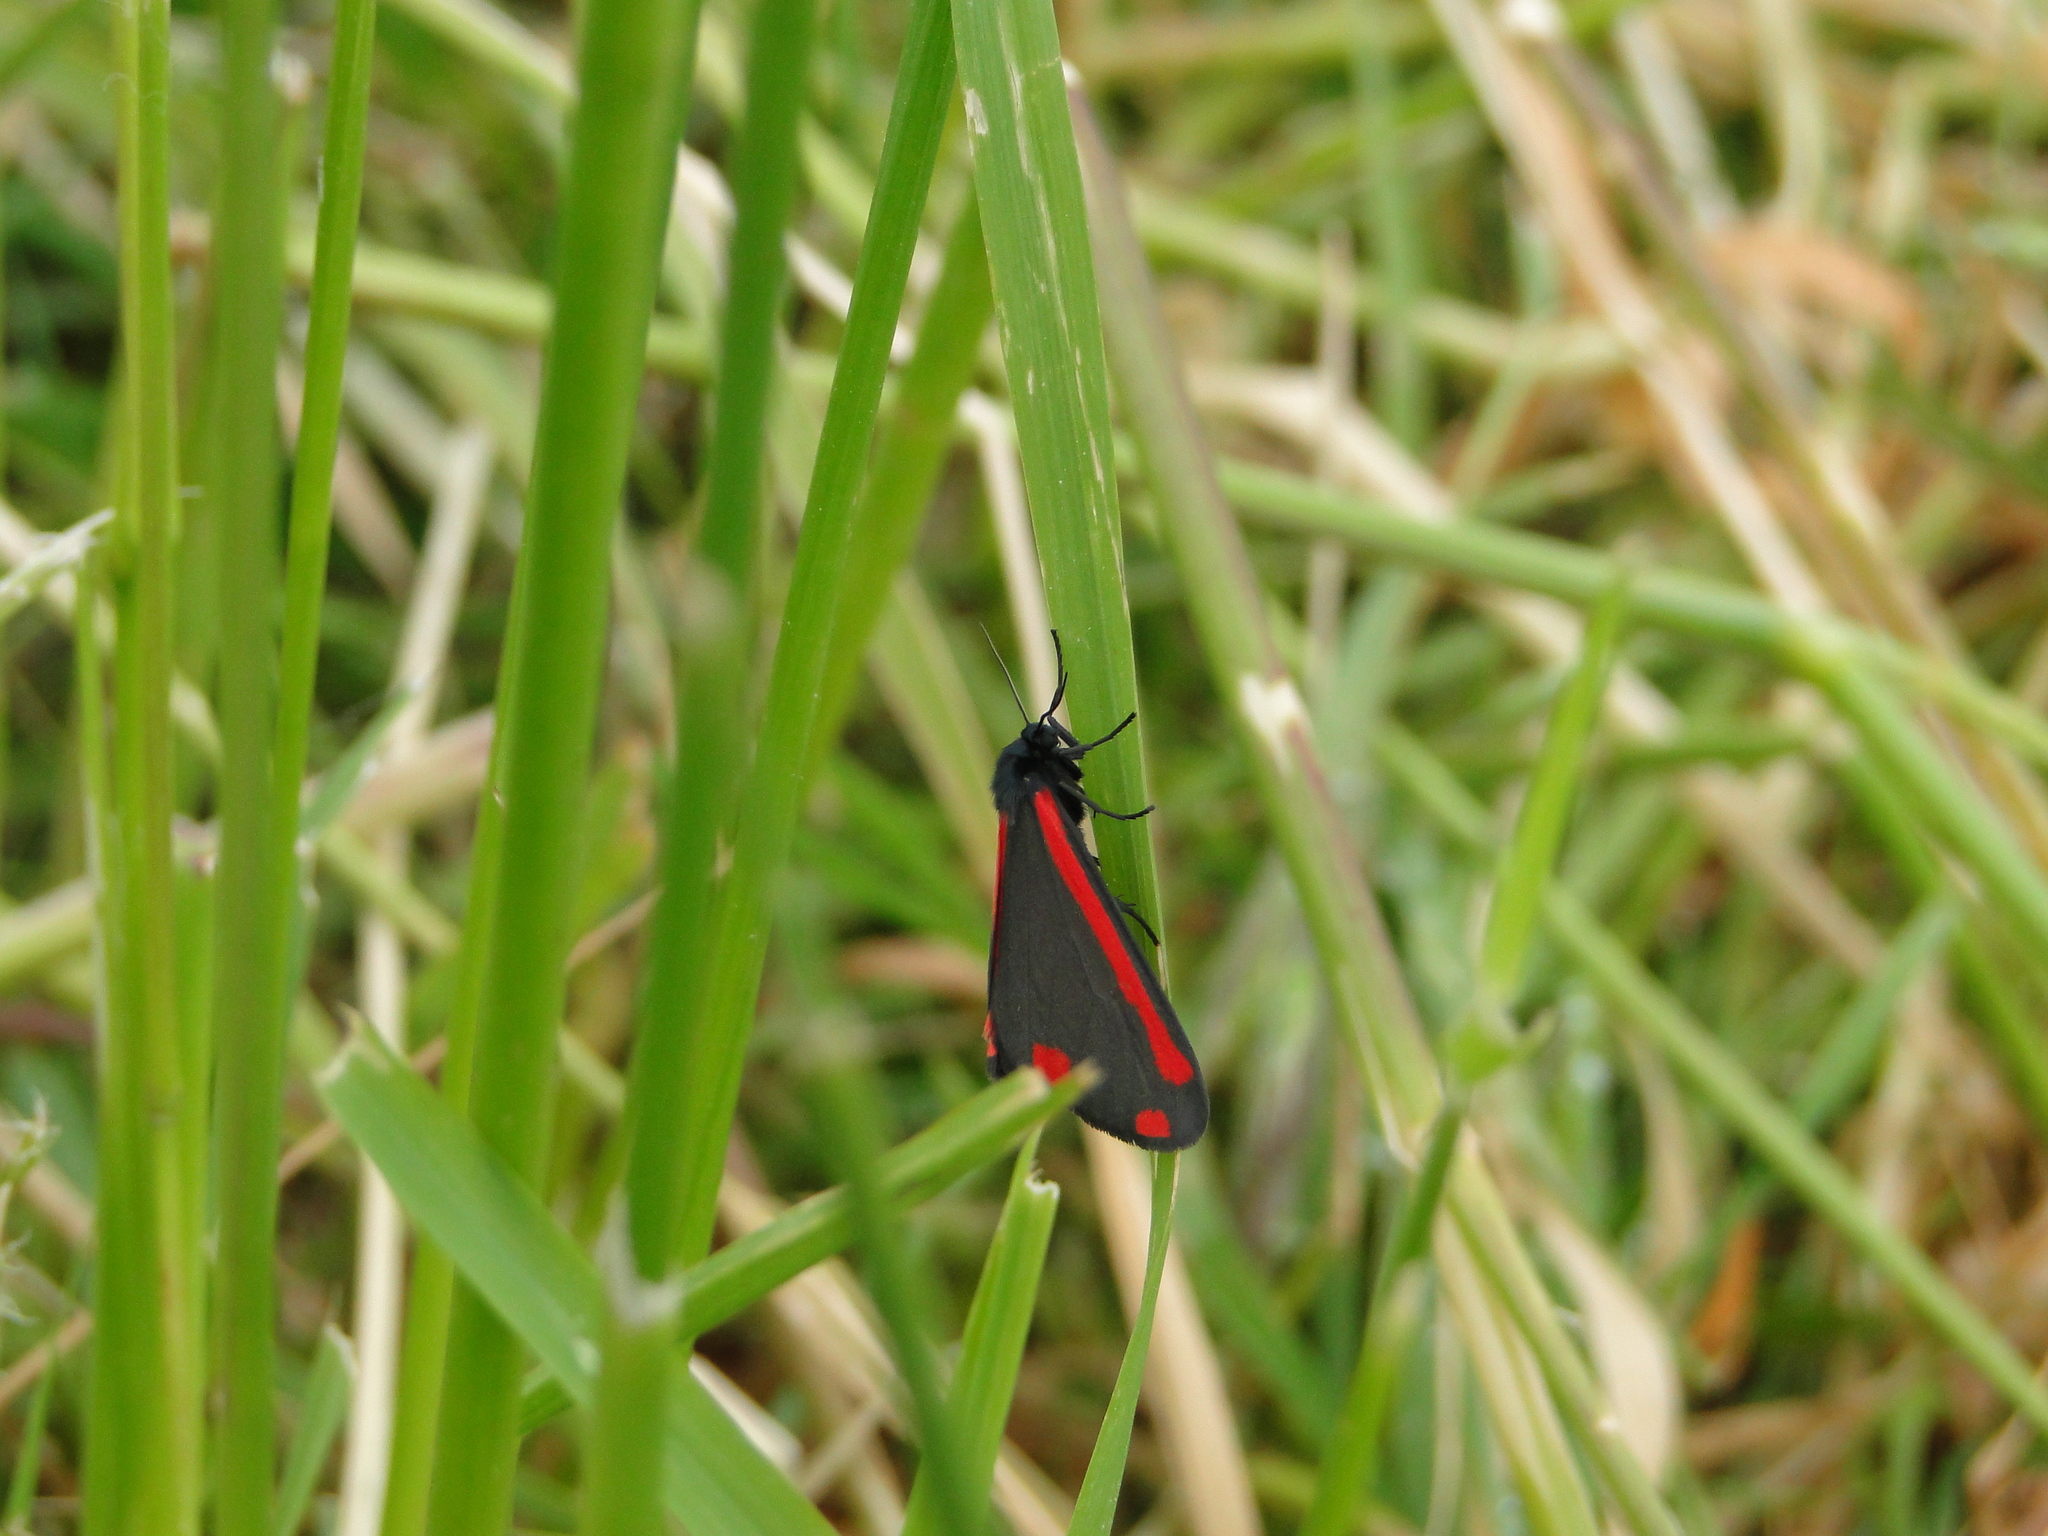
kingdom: Animalia
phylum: Arthropoda
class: Insecta
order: Lepidoptera
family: Erebidae
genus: Tyria
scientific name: Tyria jacobaeae
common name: Cinnabar
